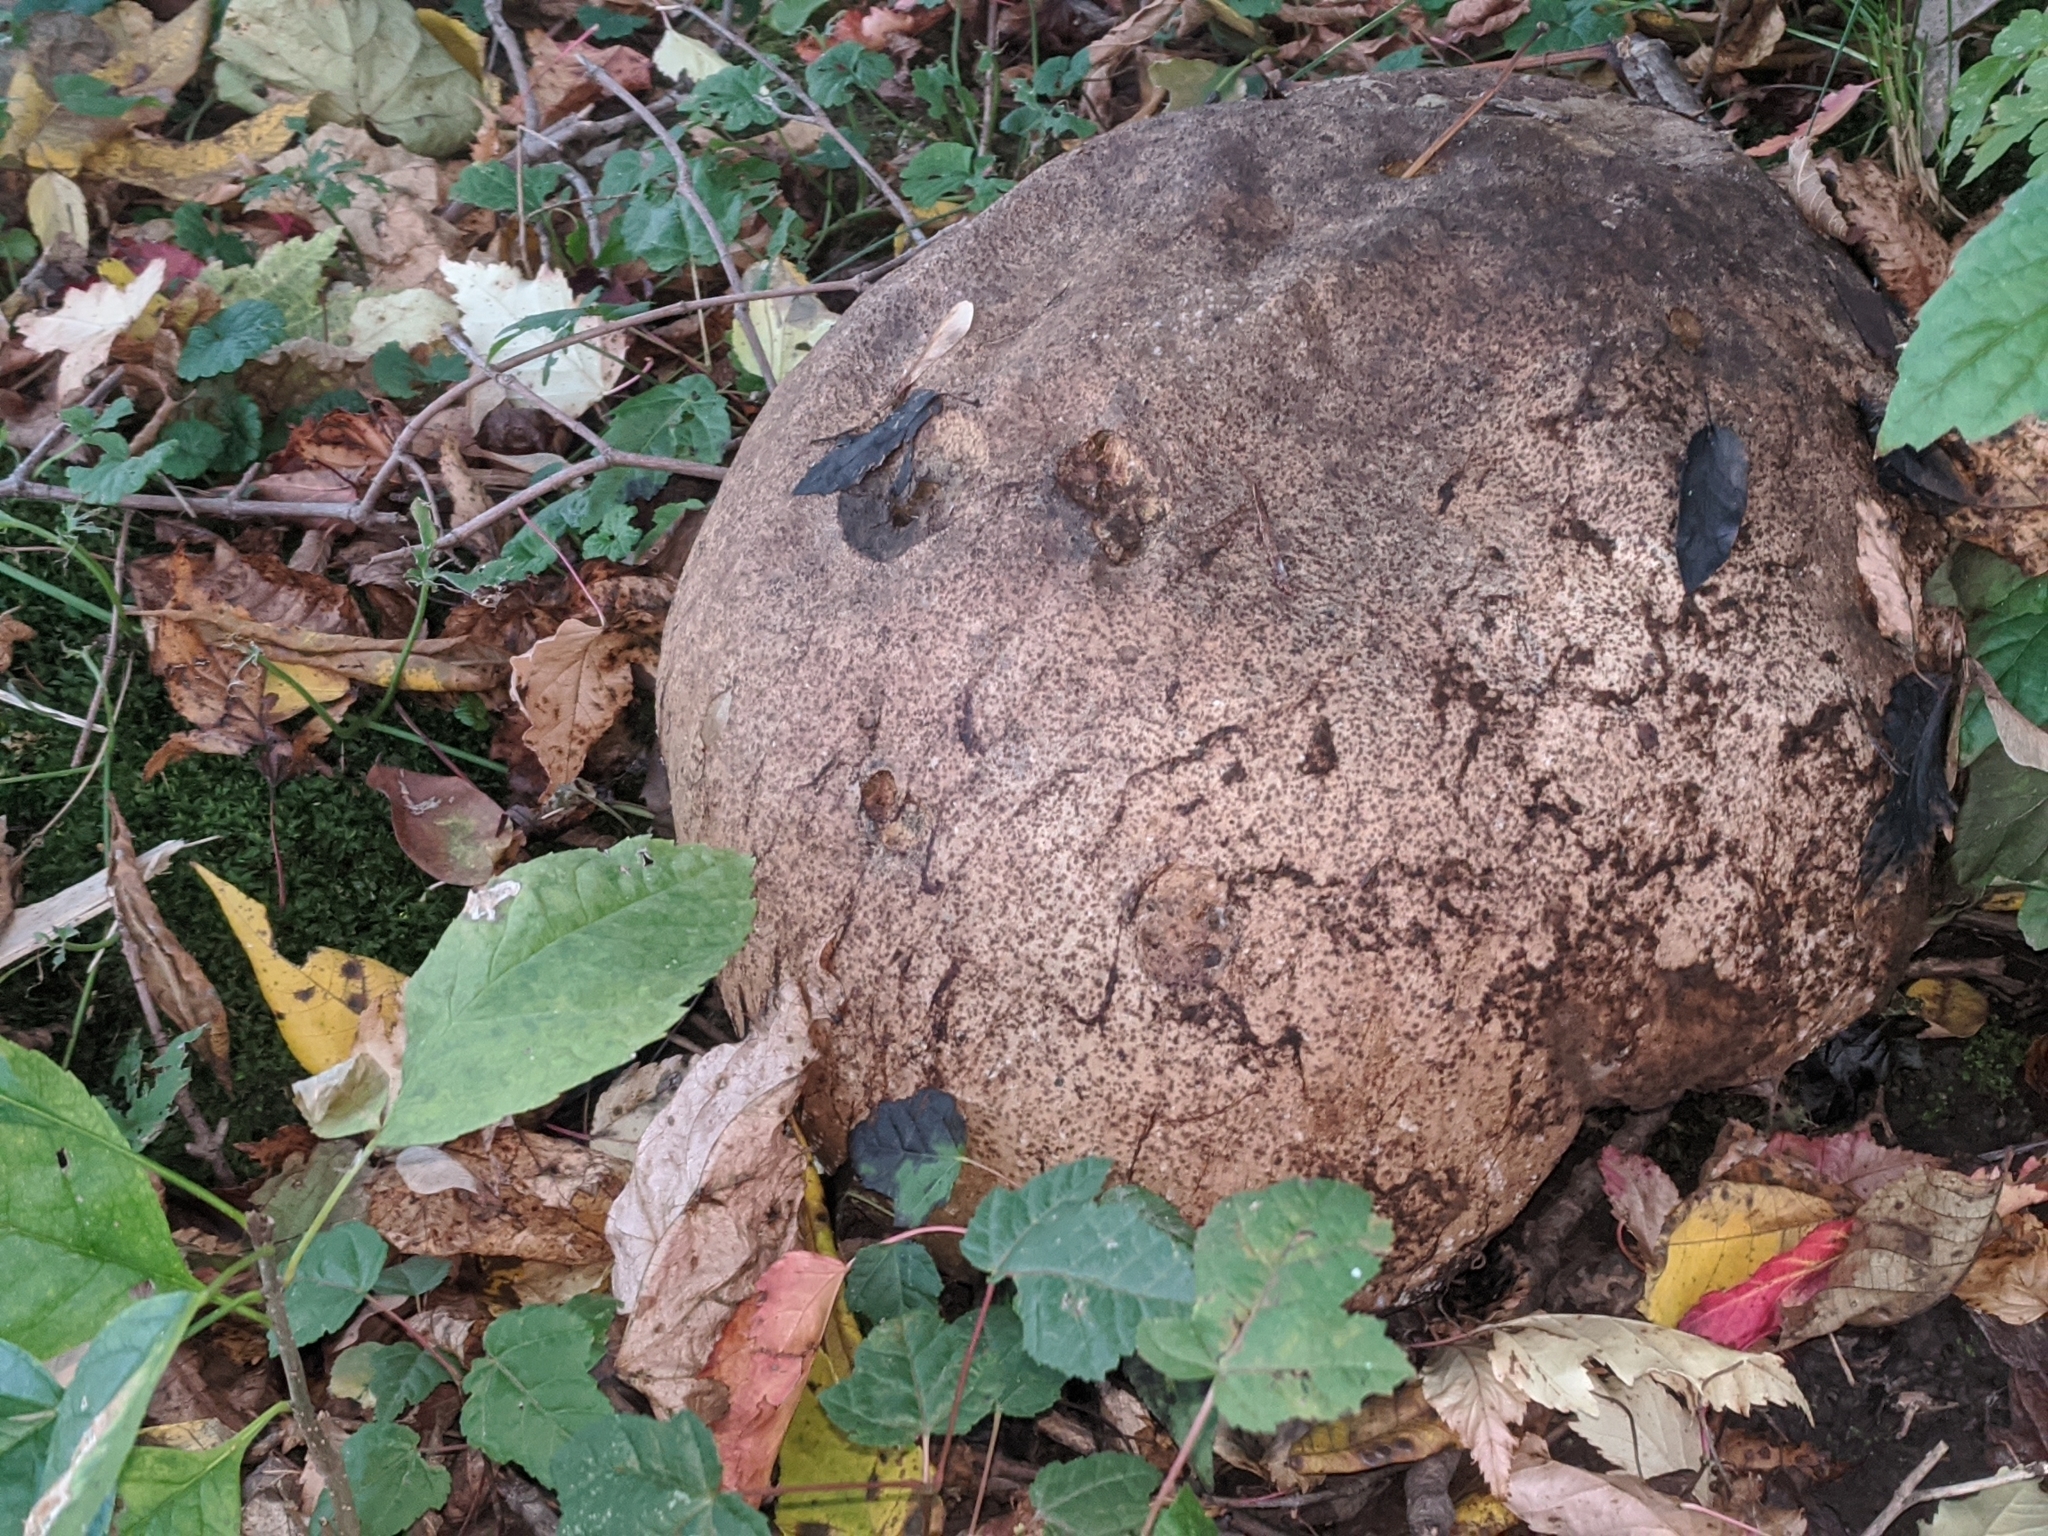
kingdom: Fungi
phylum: Basidiomycota
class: Agaricomycetes
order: Agaricales
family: Lycoperdaceae
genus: Calvatia
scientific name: Calvatia gigantea
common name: Giant puffball
